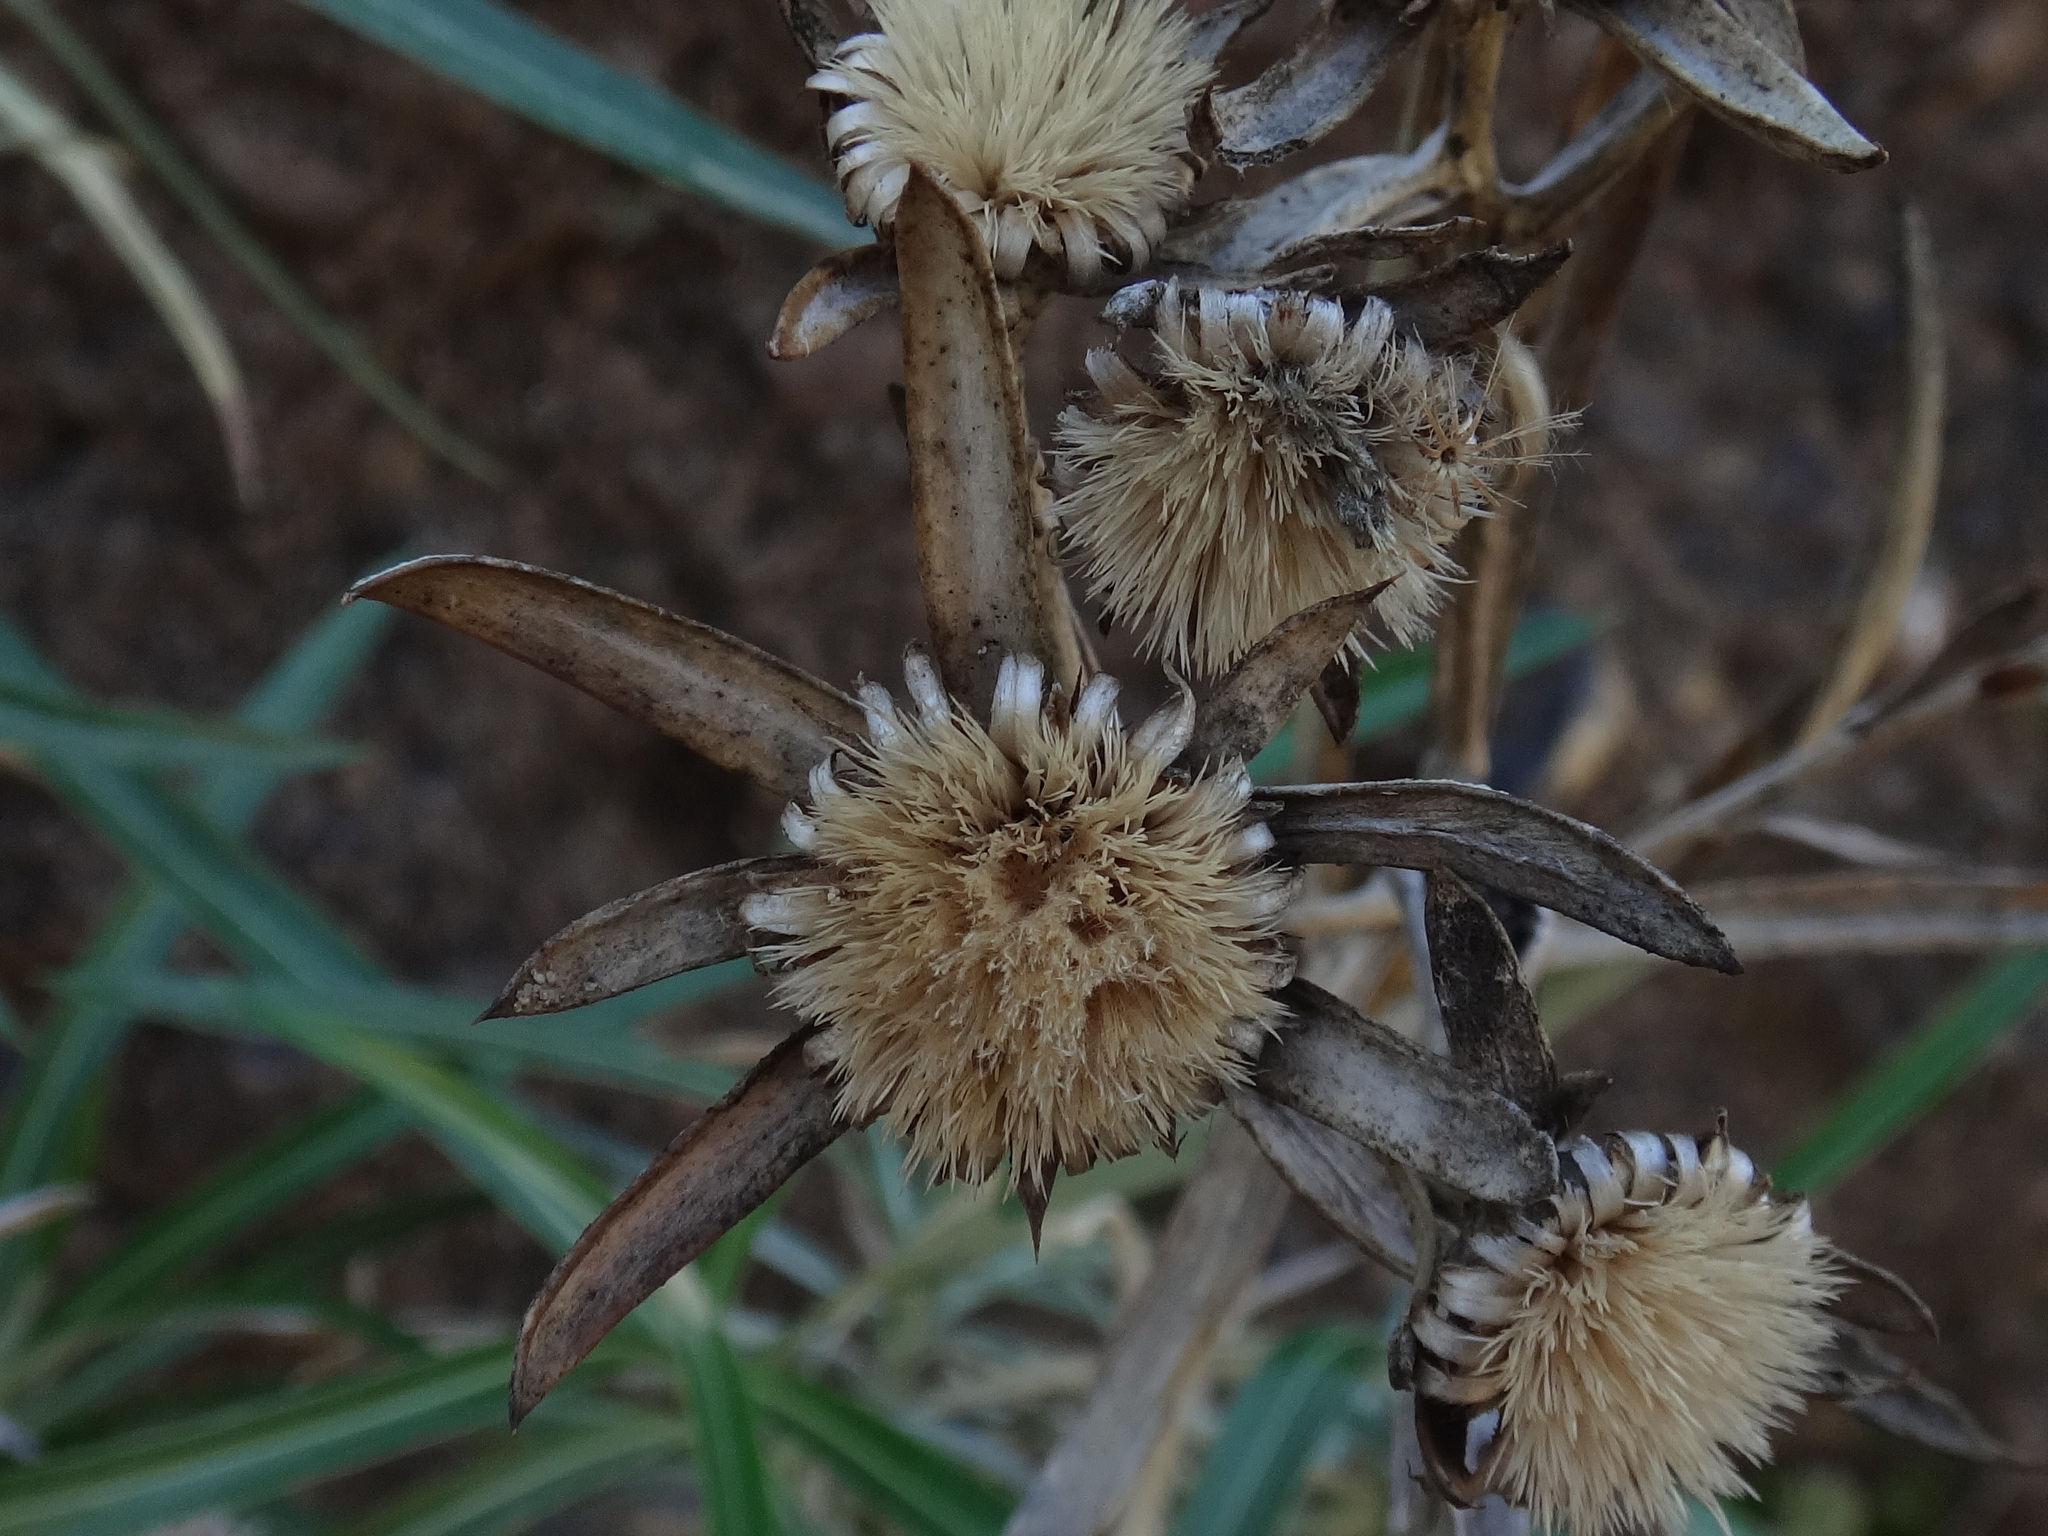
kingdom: Plantae
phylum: Tracheophyta
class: Magnoliopsida
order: Asterales
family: Asteraceae
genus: Carlina
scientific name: Carlina falcata
